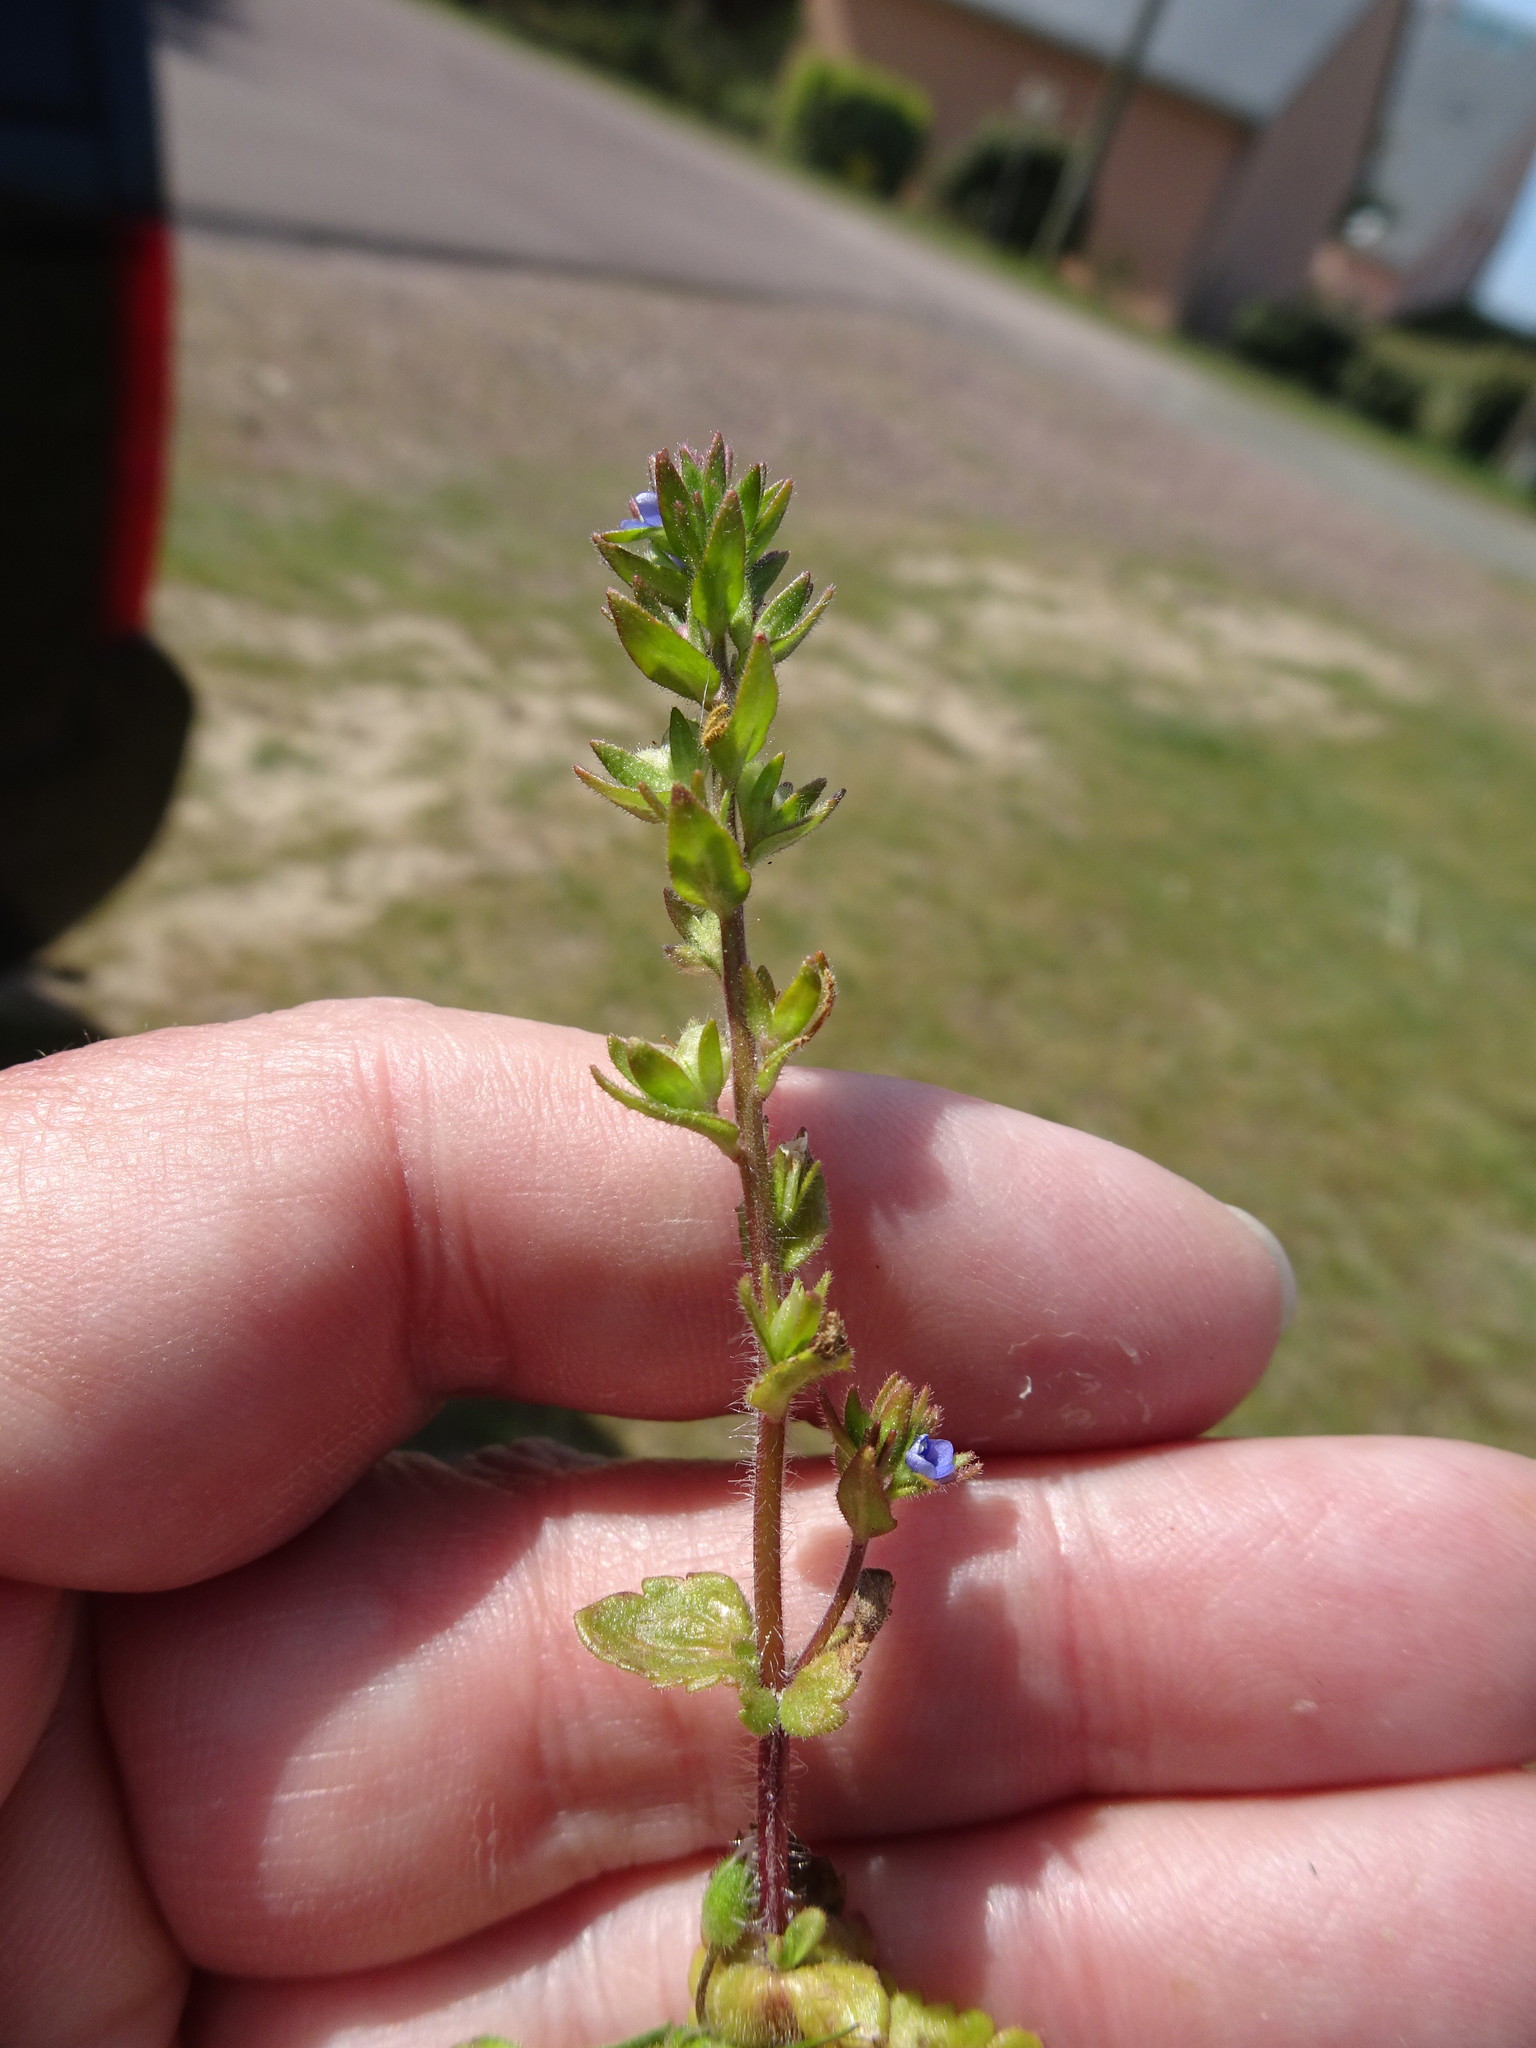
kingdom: Plantae
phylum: Tracheophyta
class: Magnoliopsida
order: Lamiales
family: Plantaginaceae
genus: Veronica
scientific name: Veronica arvensis
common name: Corn speedwell
